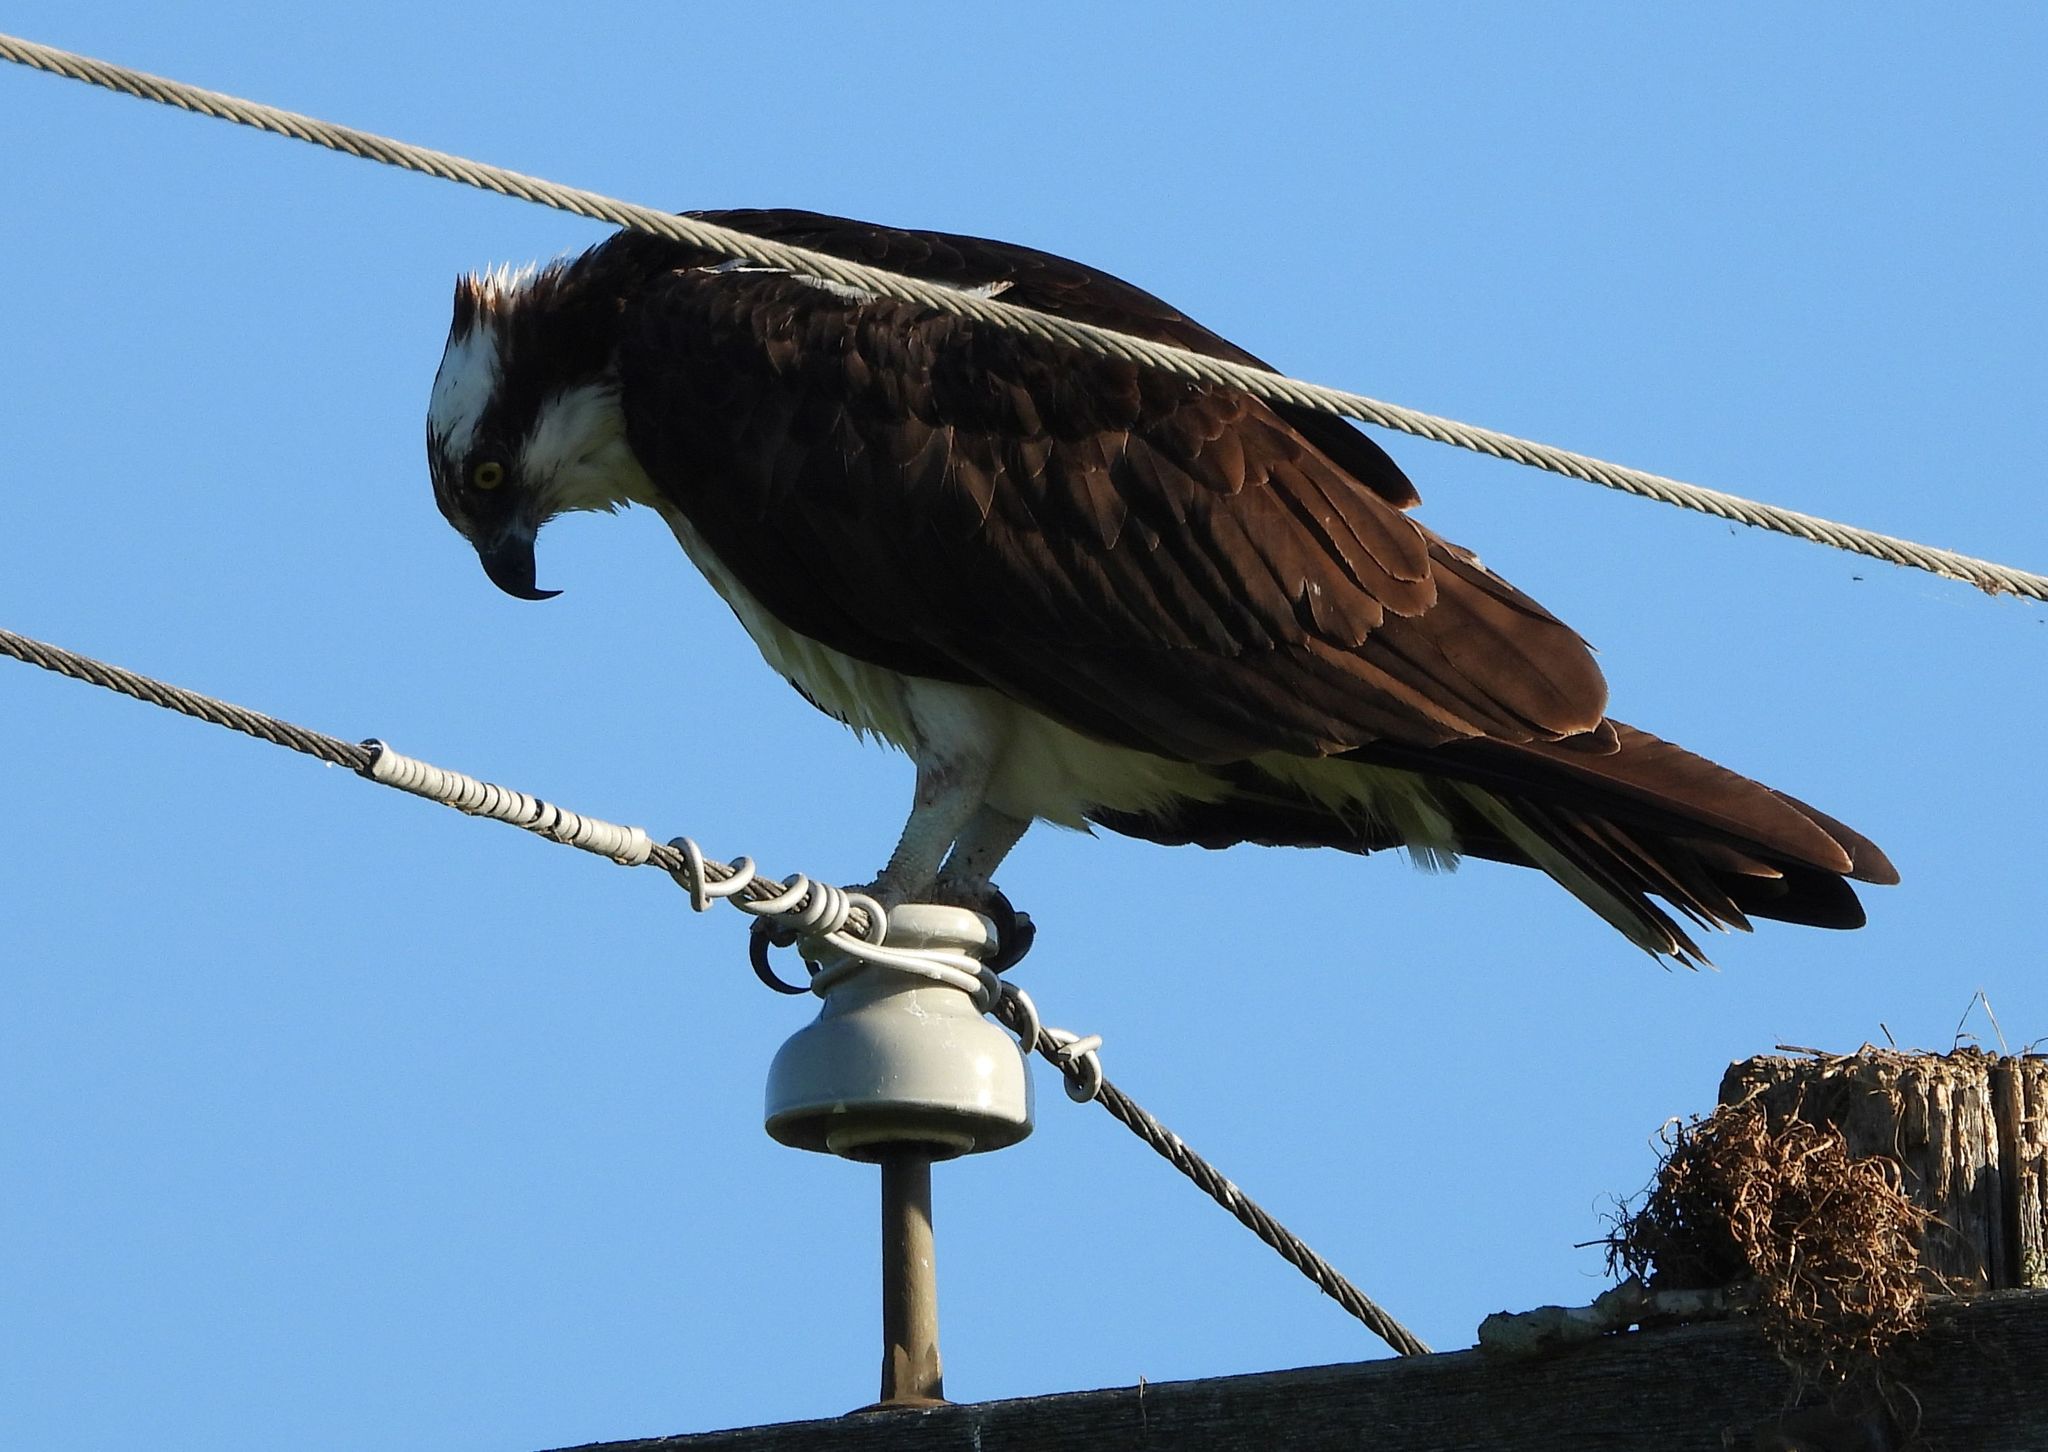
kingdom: Animalia
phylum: Chordata
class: Aves
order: Accipitriformes
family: Pandionidae
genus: Pandion
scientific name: Pandion haliaetus
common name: Osprey
